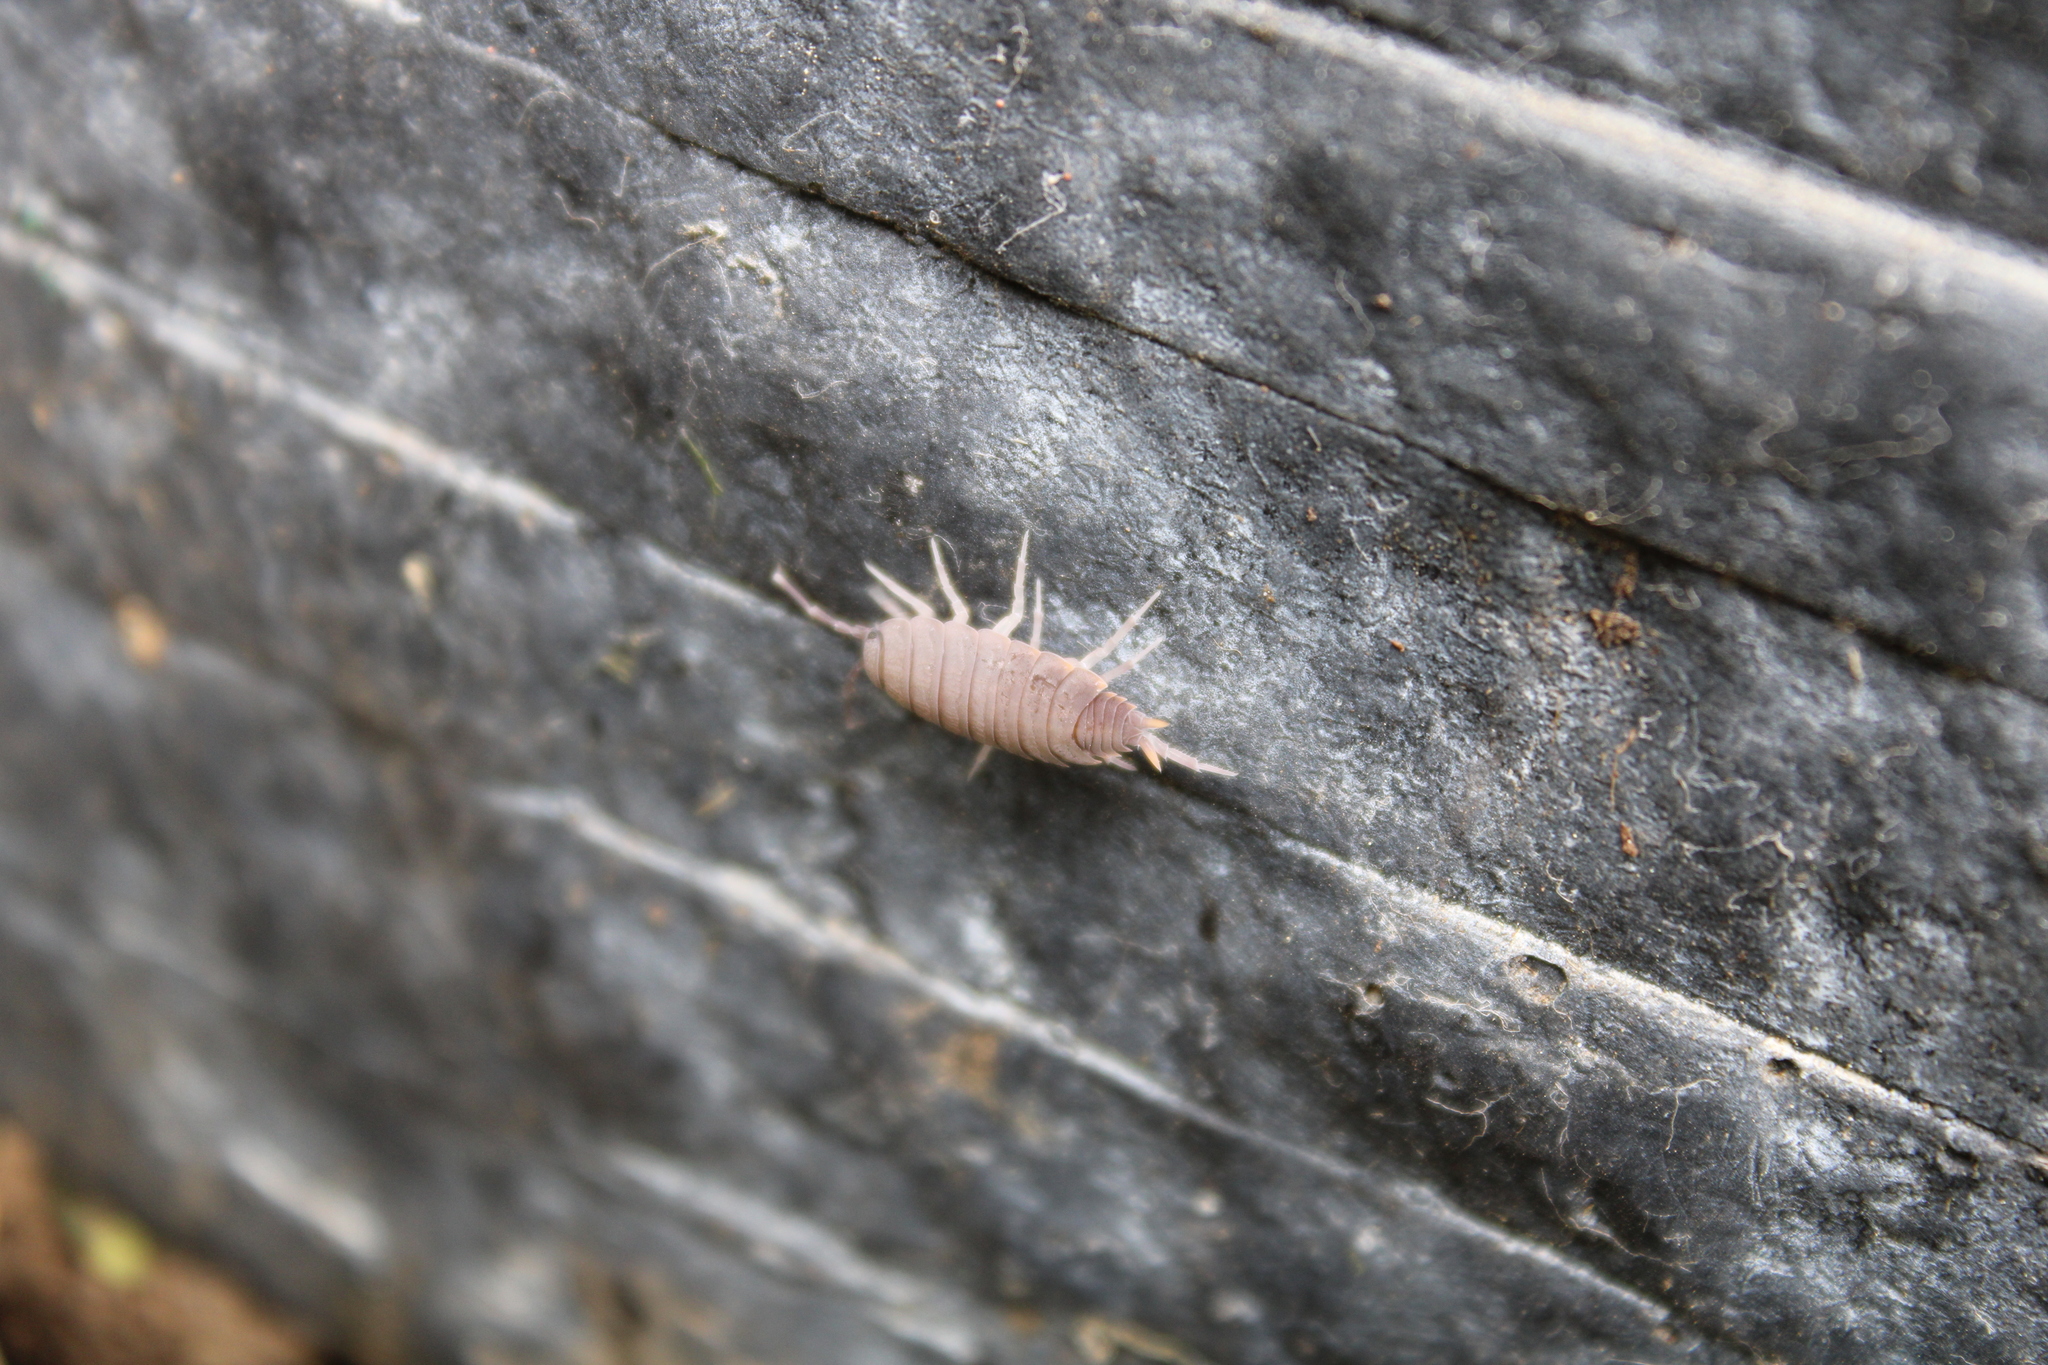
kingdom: Animalia
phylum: Arthropoda
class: Malacostraca
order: Isopoda
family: Porcellionidae
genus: Porcellionides
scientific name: Porcellionides pruinosus
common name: Plum woodlouse
